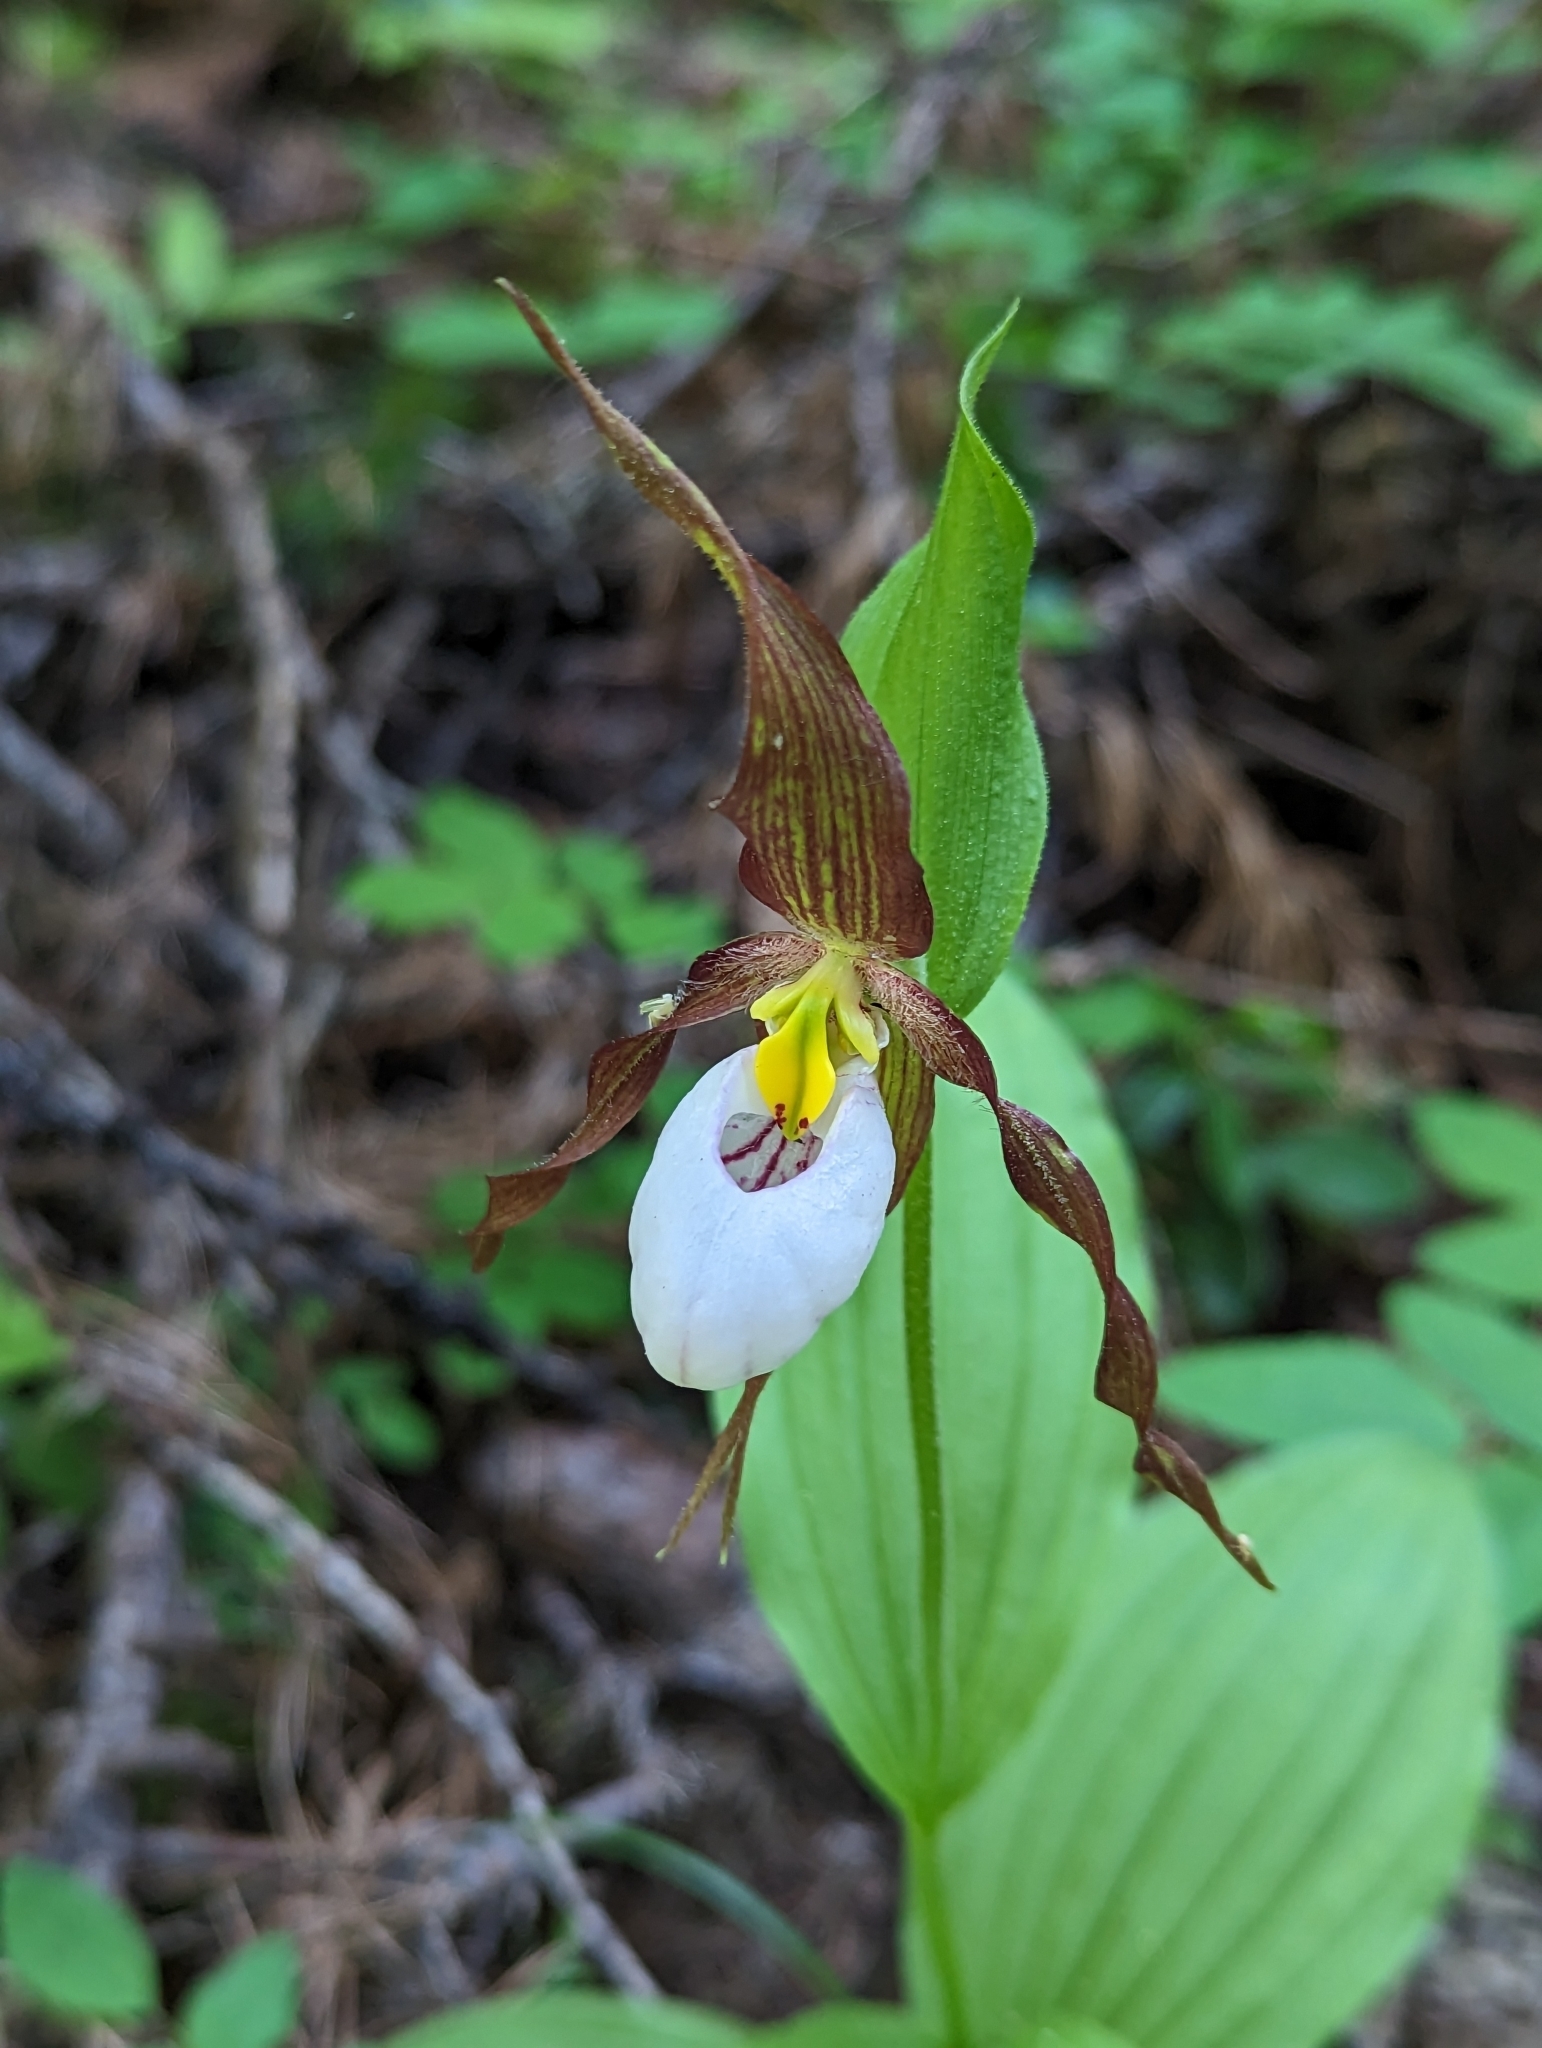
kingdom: Plantae
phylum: Tracheophyta
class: Liliopsida
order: Asparagales
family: Orchidaceae
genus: Cypripedium
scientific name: Cypripedium montanum
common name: Mountain lady's-slipper
